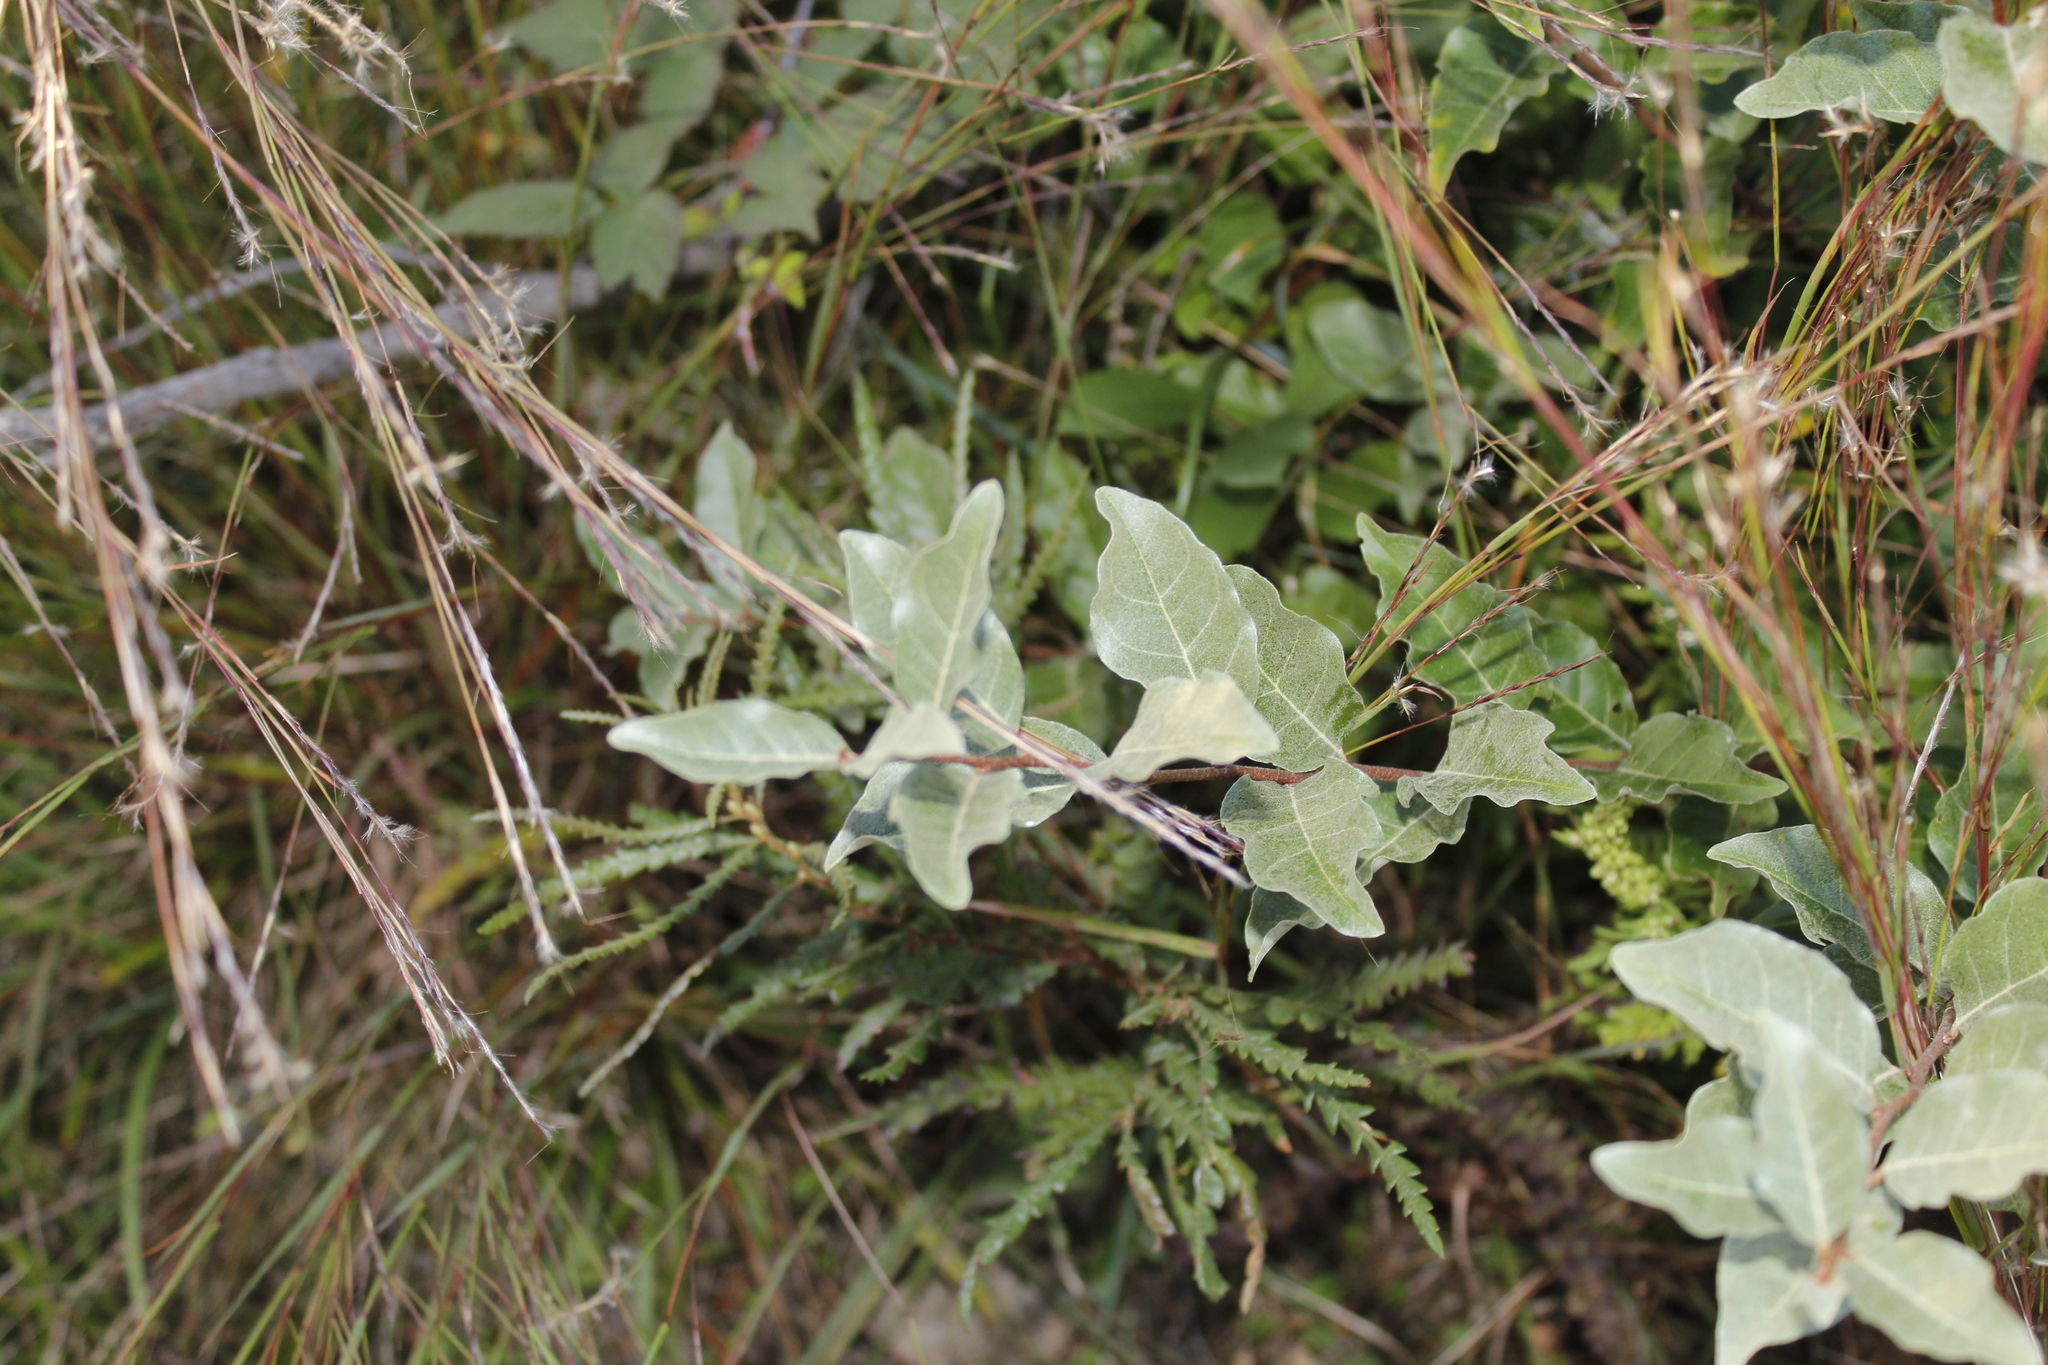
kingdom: Plantae
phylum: Tracheophyta
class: Magnoliopsida
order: Rosales
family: Elaeagnaceae
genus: Elaeagnus
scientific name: Elaeagnus umbellata
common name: Autumn olive
